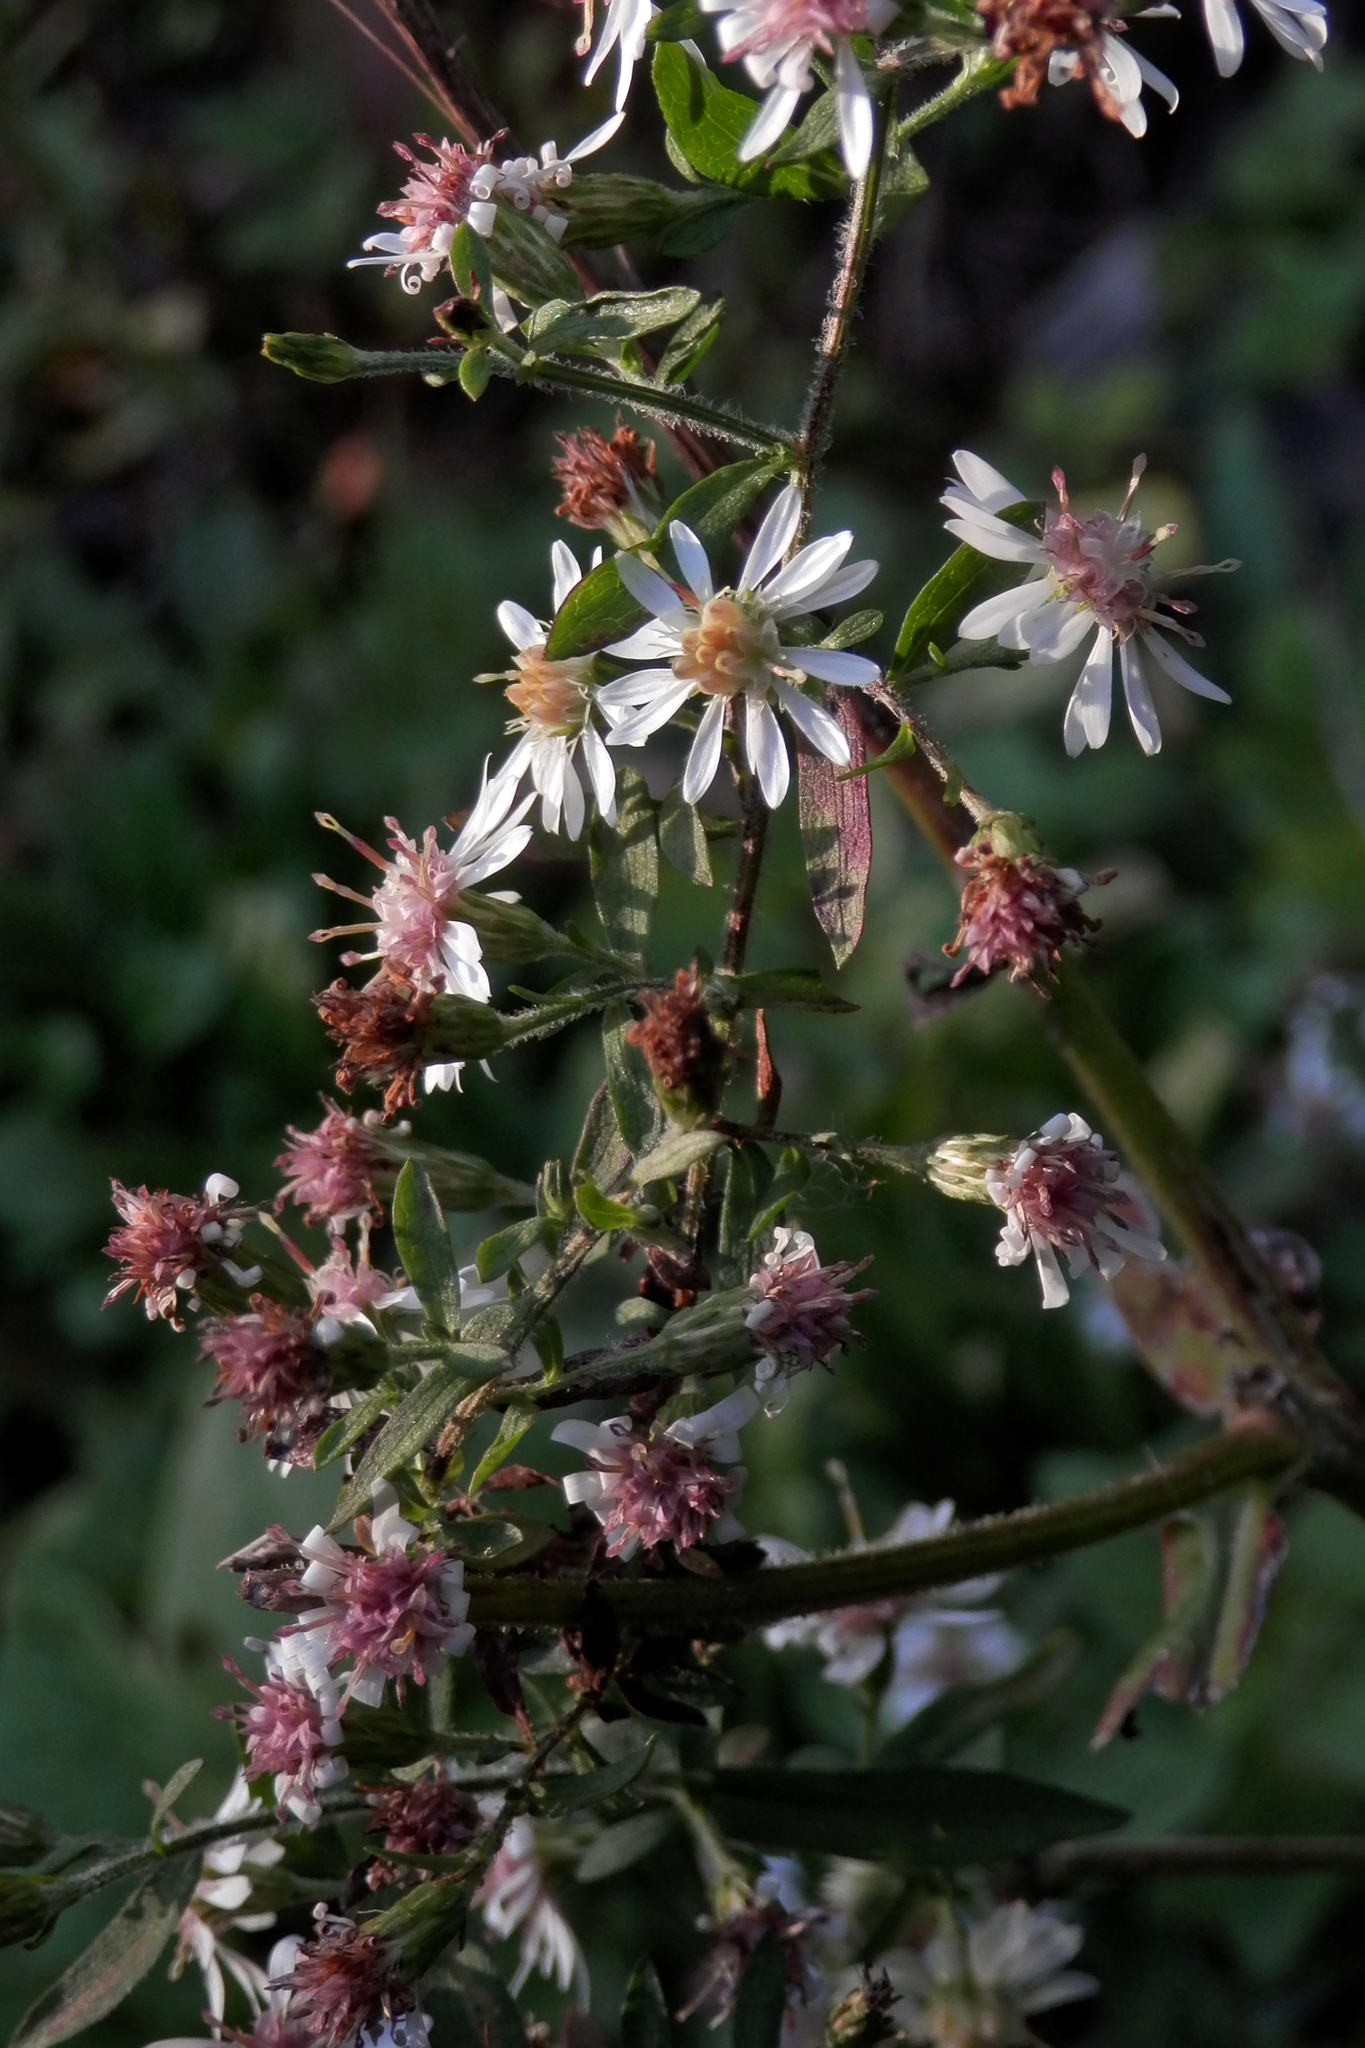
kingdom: Plantae
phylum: Tracheophyta
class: Magnoliopsida
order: Asterales
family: Asteraceae
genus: Symphyotrichum
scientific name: Symphyotrichum lateriflorum
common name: Calico aster
